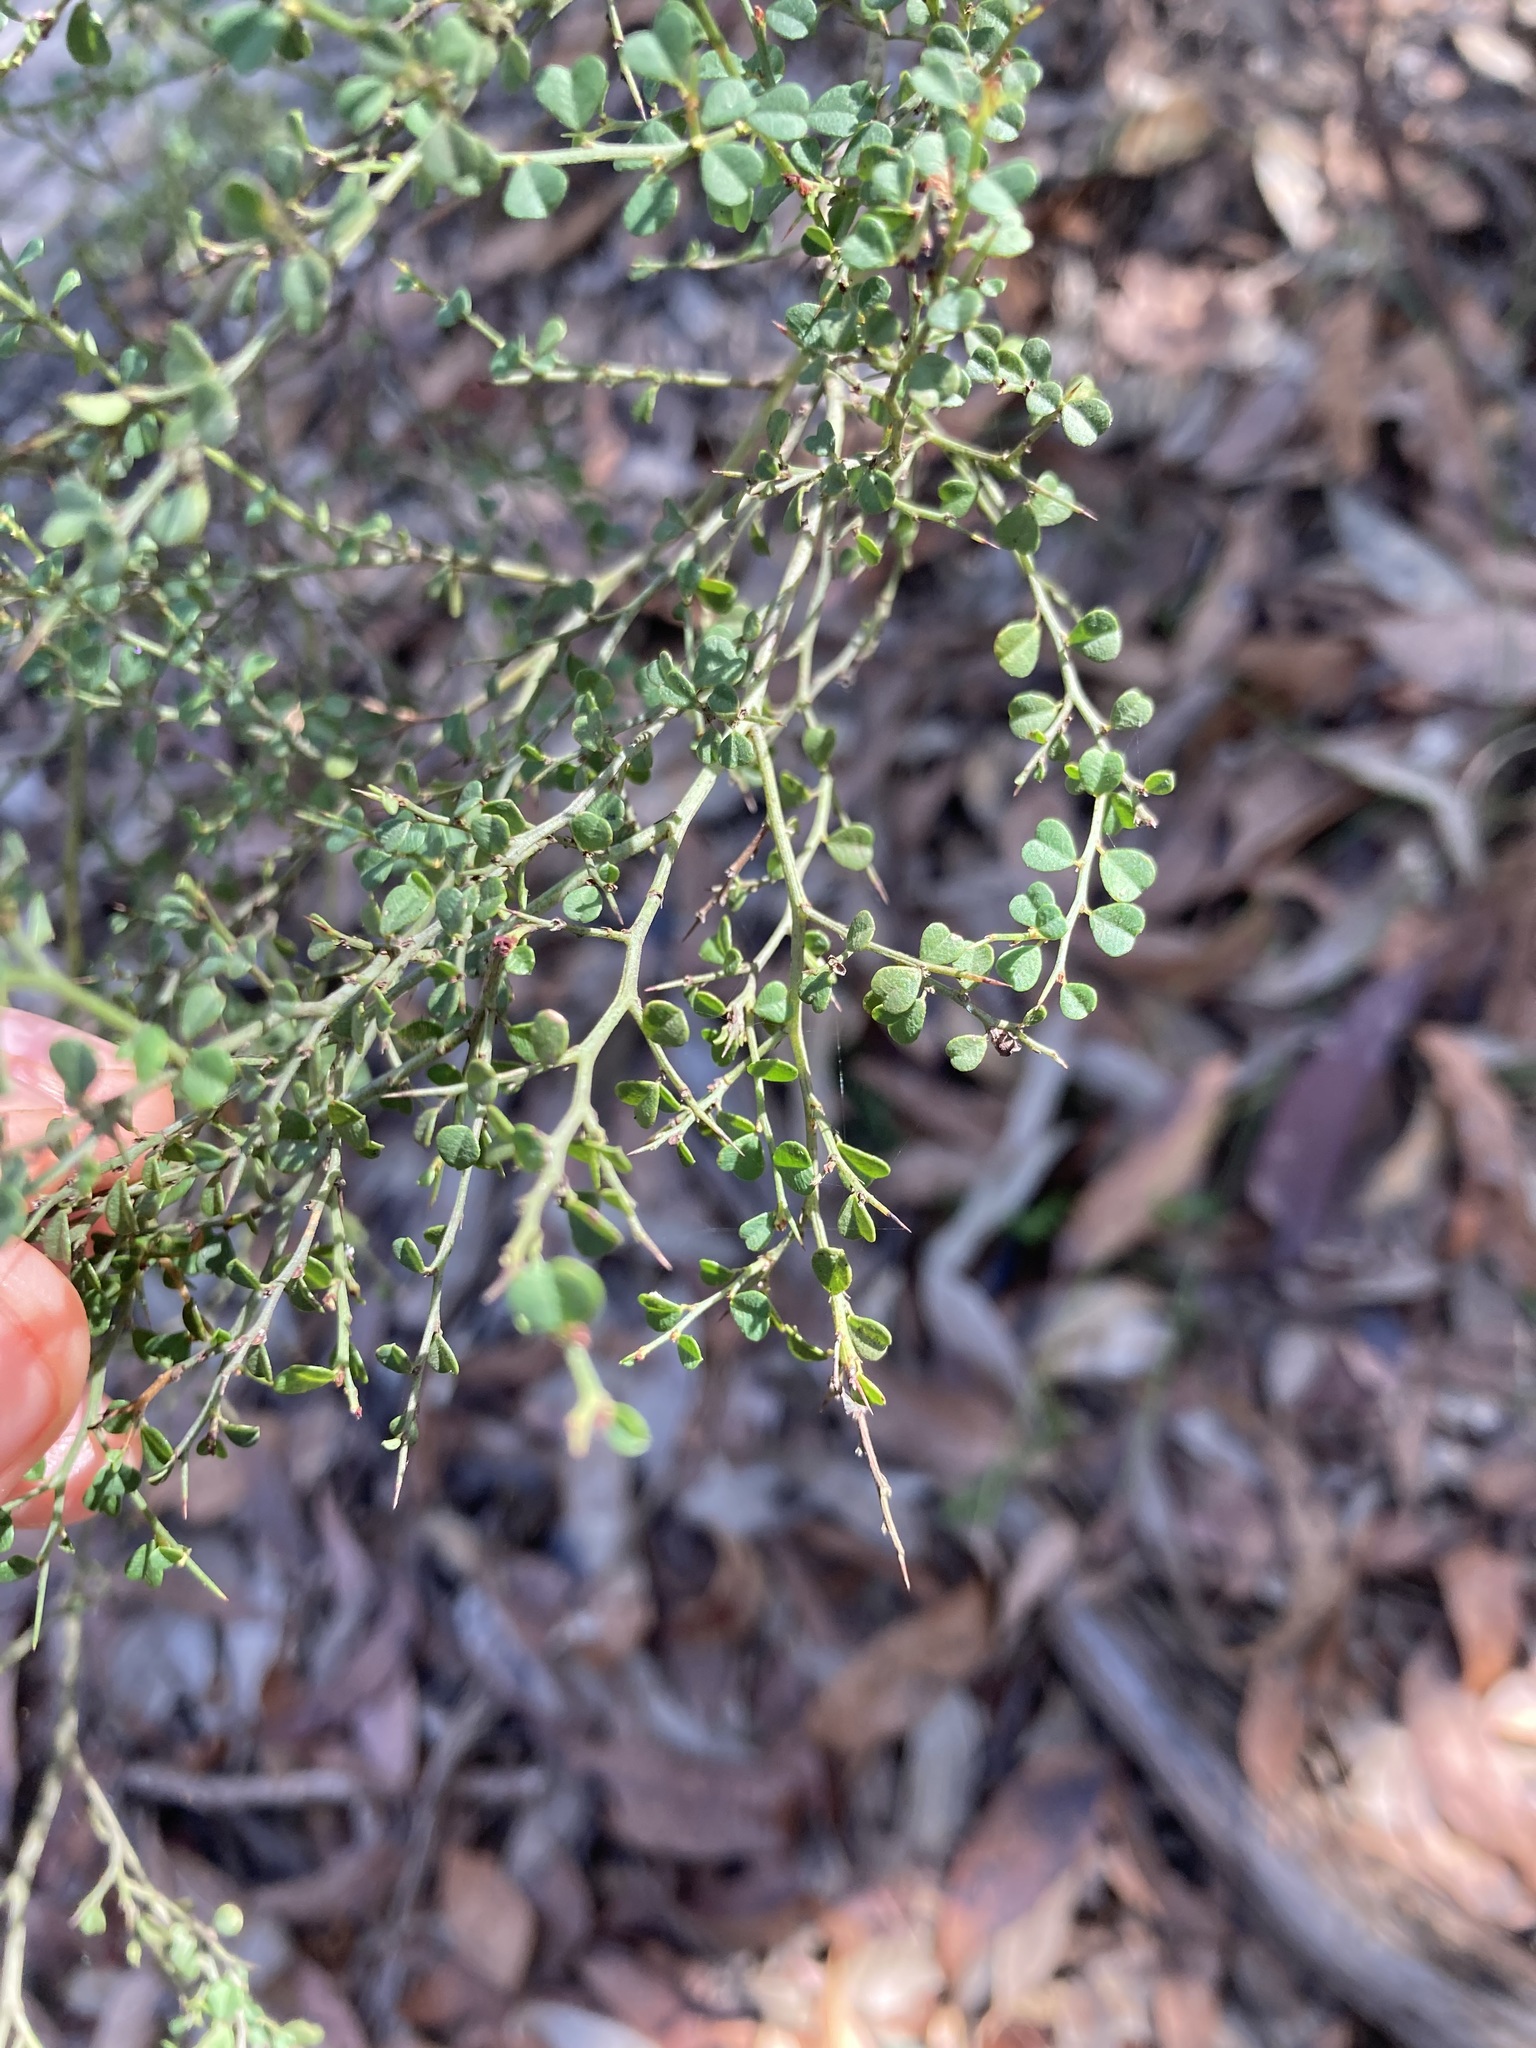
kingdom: Plantae
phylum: Tracheophyta
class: Magnoliopsida
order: Fabales
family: Fabaceae
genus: Bossiaea
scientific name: Bossiaea obcordata
